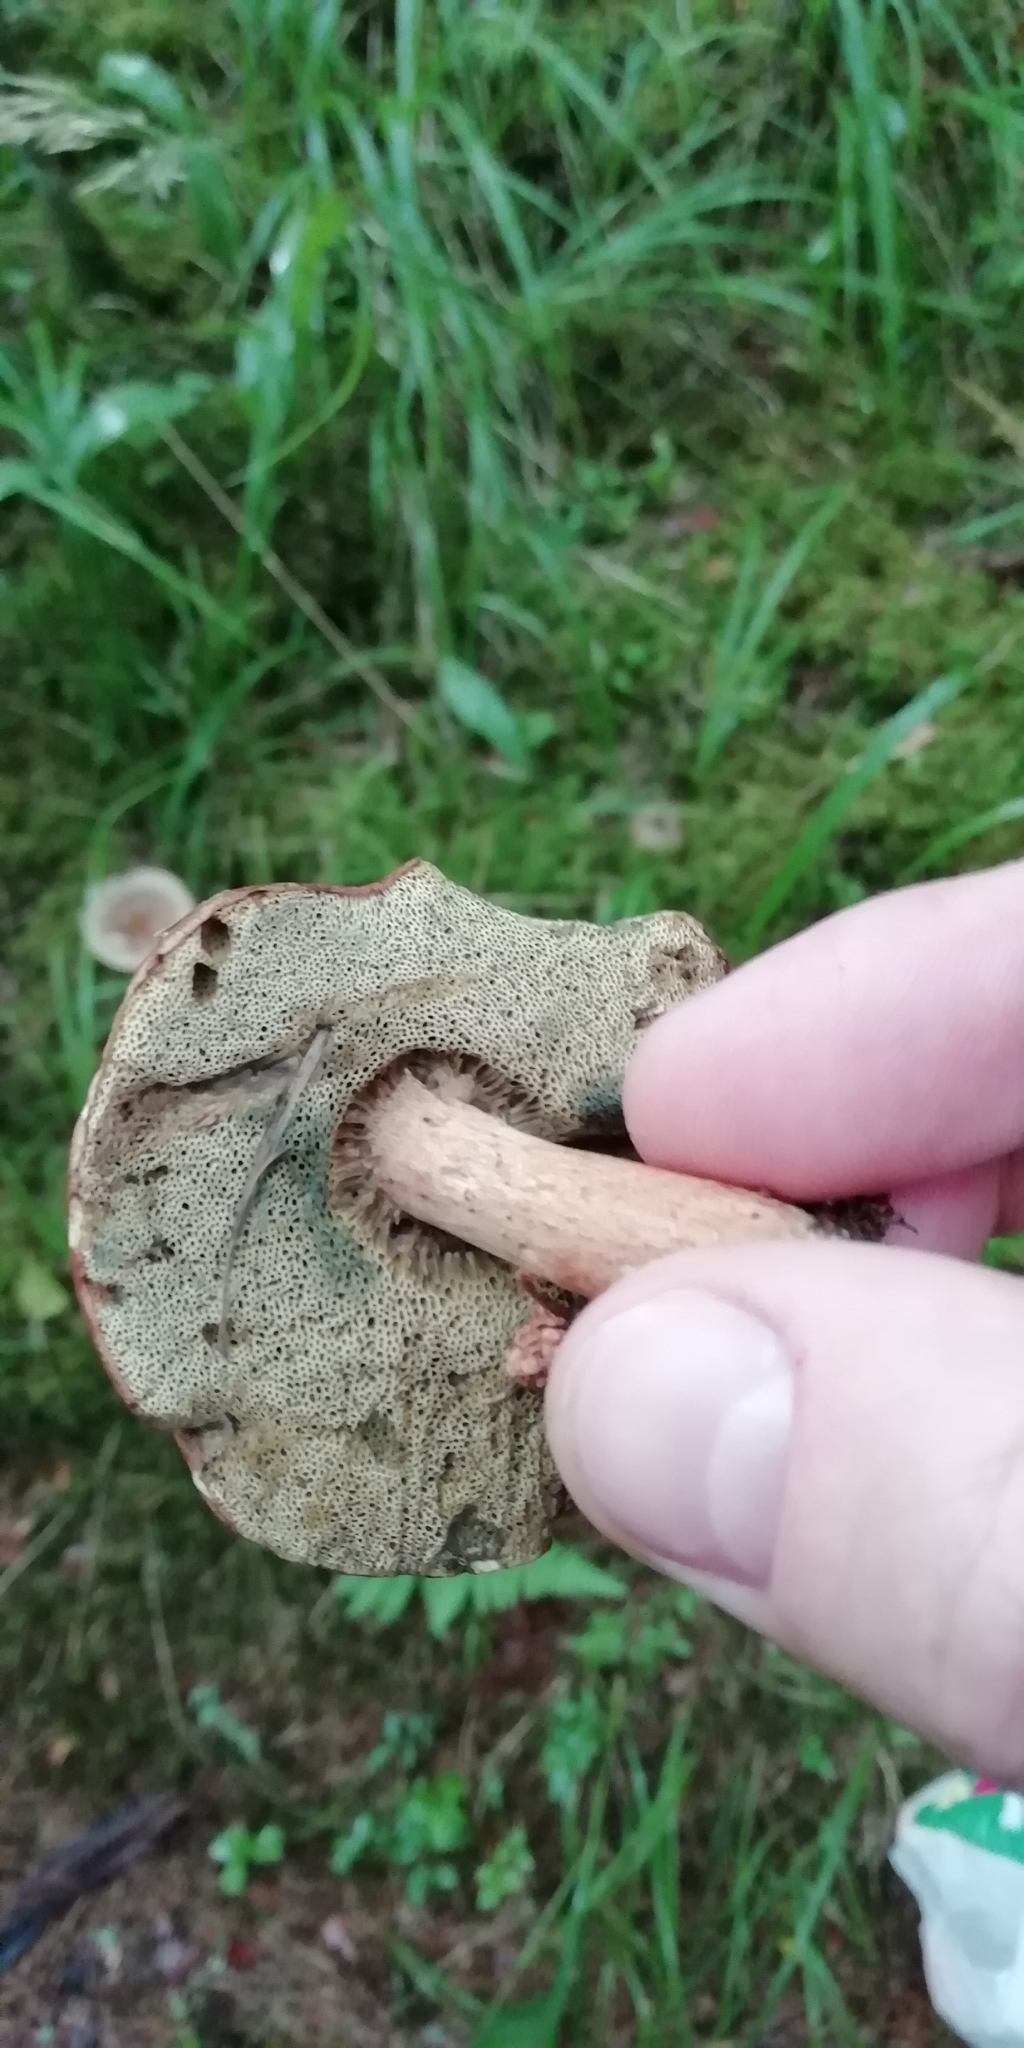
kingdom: Fungi
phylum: Basidiomycota
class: Agaricomycetes
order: Boletales
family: Boletaceae
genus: Imleria
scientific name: Imleria badia
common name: Bay bolete
